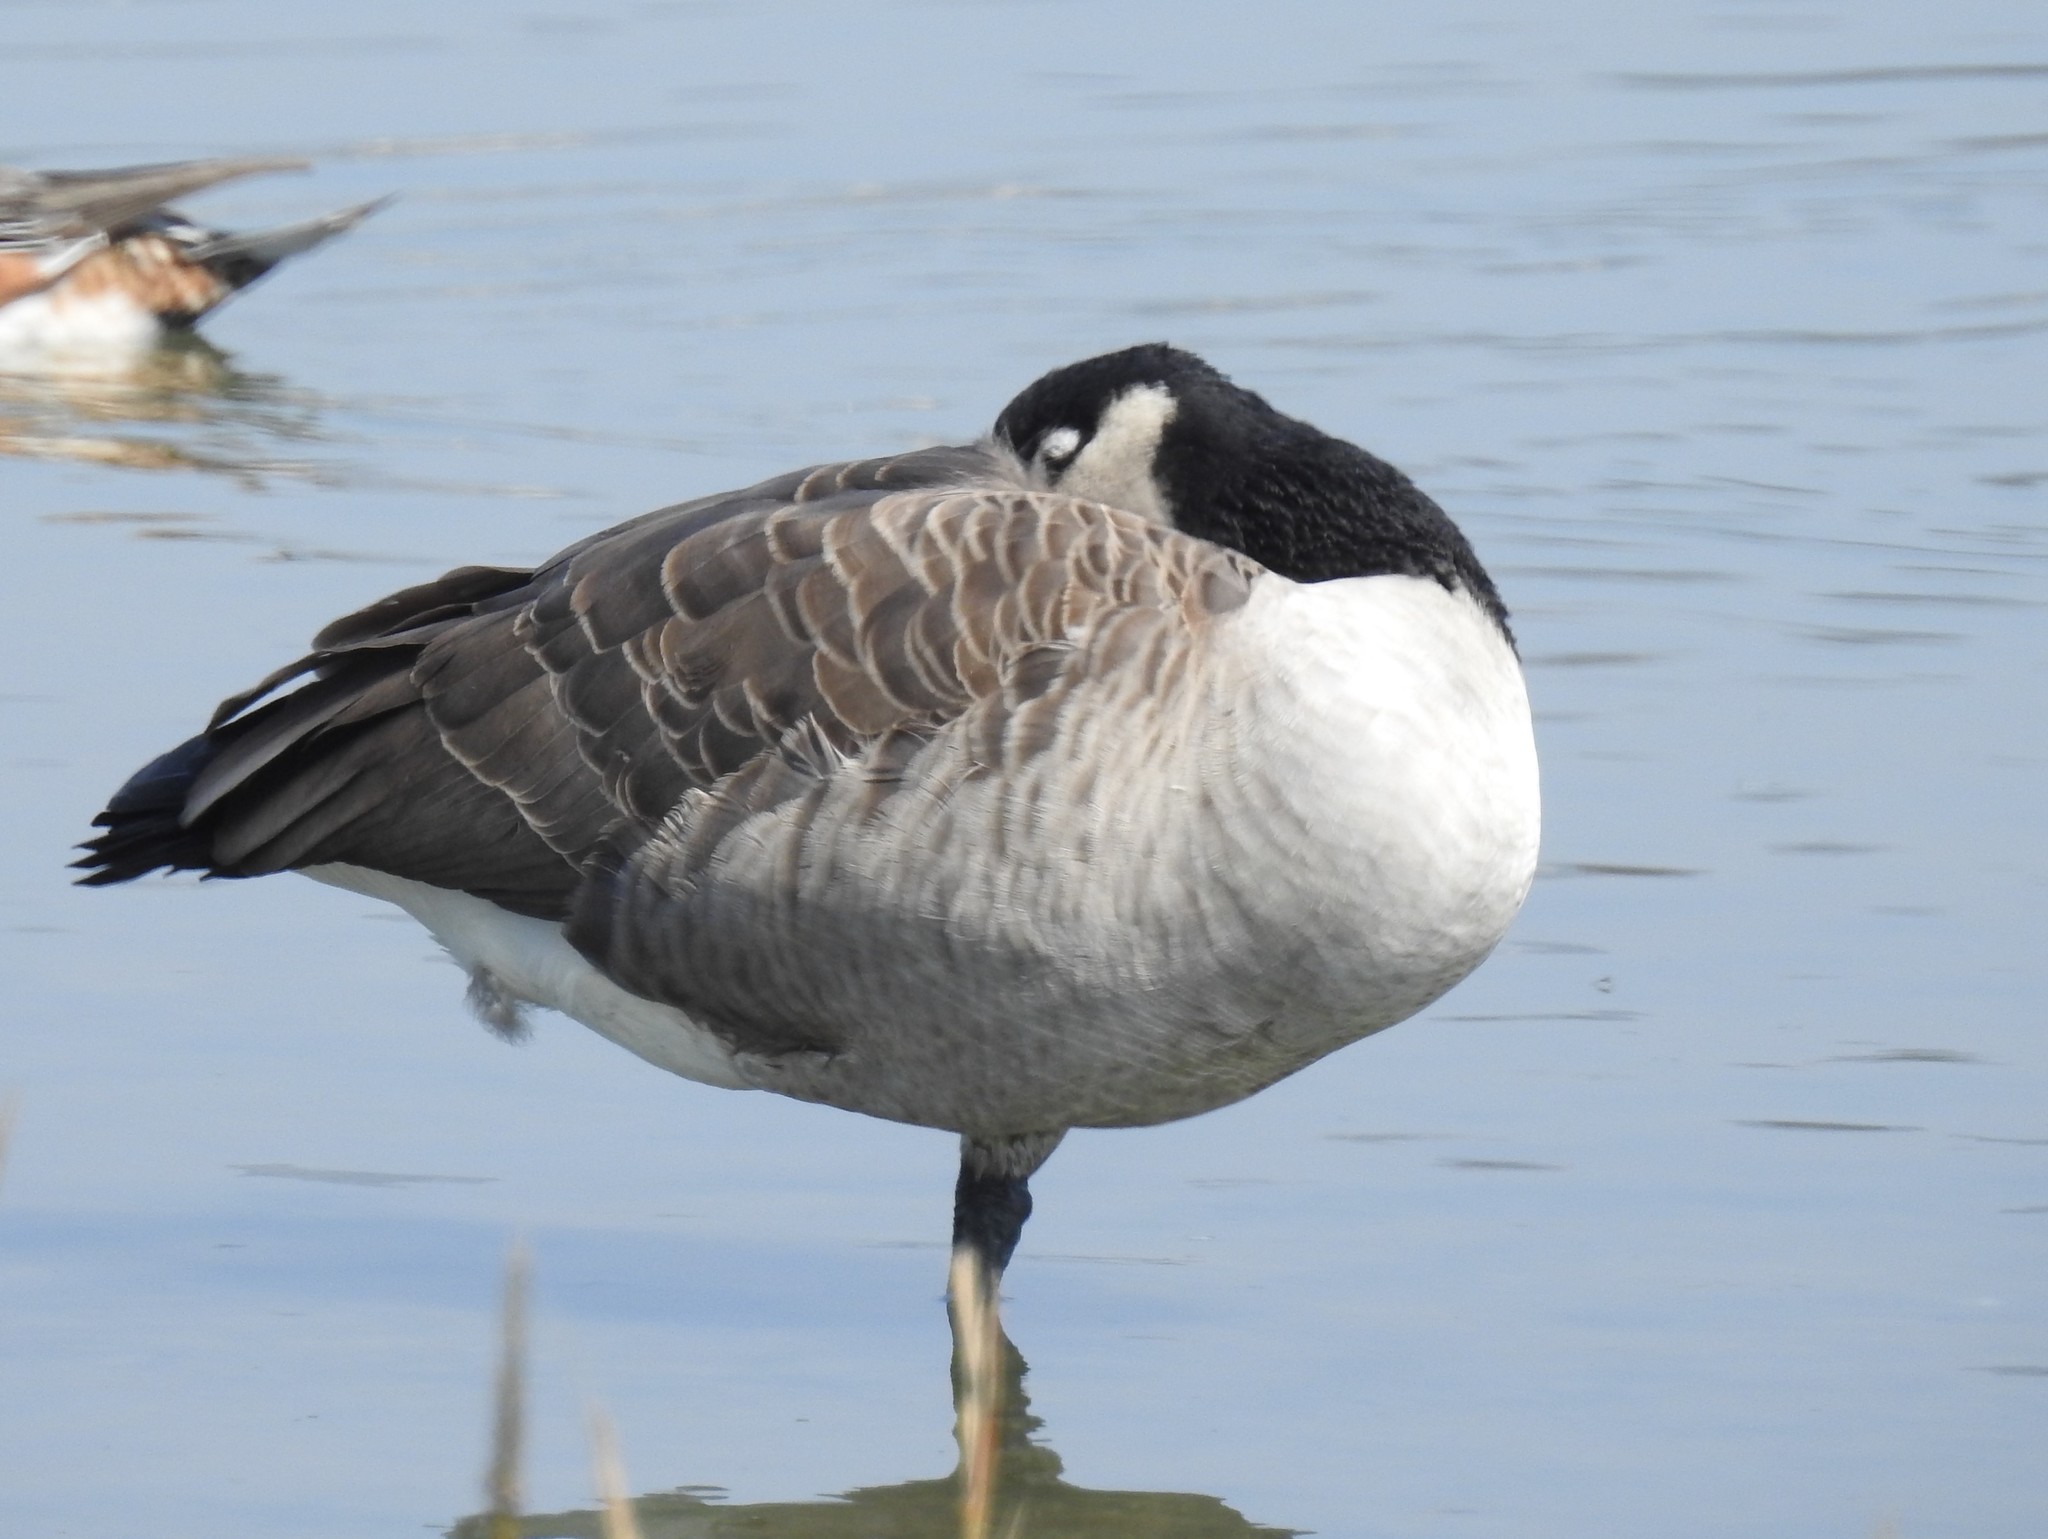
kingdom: Animalia
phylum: Chordata
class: Aves
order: Anseriformes
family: Anatidae
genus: Branta
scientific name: Branta canadensis
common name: Canada goose
